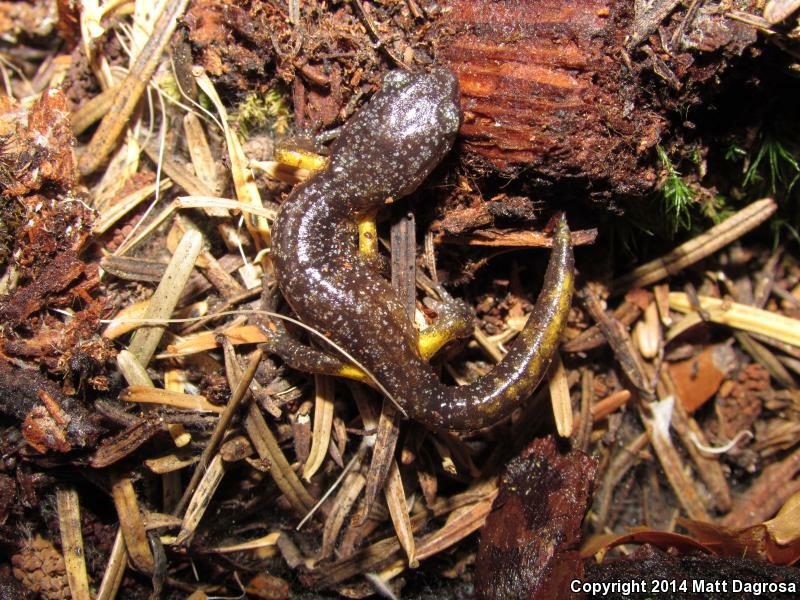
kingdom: Animalia
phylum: Chordata
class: Amphibia
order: Caudata
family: Plethodontidae
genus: Ensatina
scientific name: Ensatina eschscholtzii
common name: Ensatina
